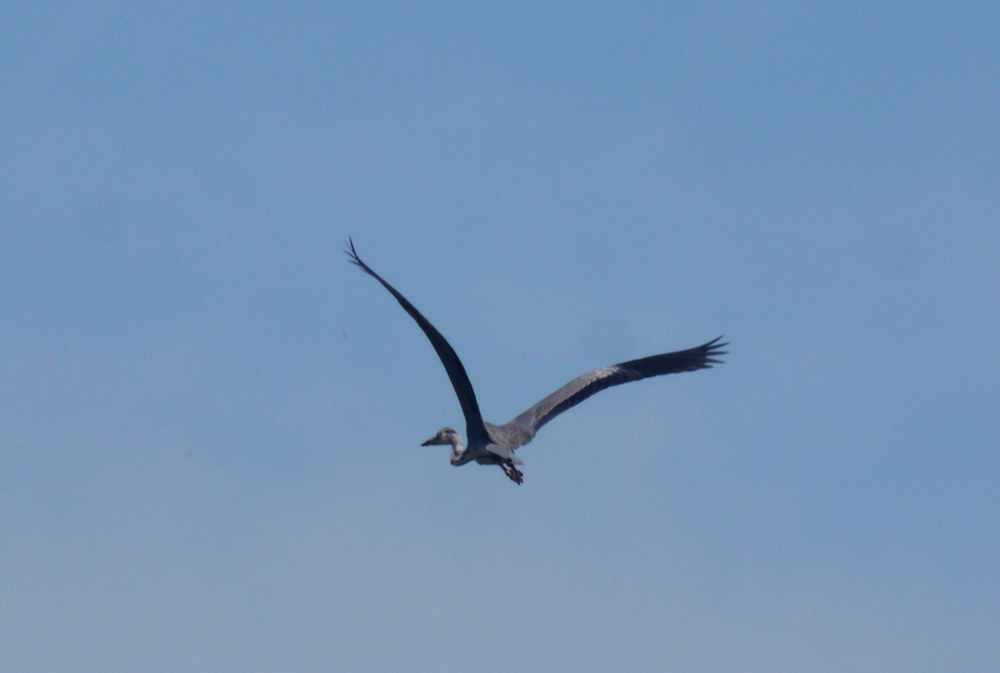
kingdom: Animalia
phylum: Chordata
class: Aves
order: Pelecaniformes
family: Ardeidae
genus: Ardea
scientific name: Ardea cinerea
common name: Grey heron
